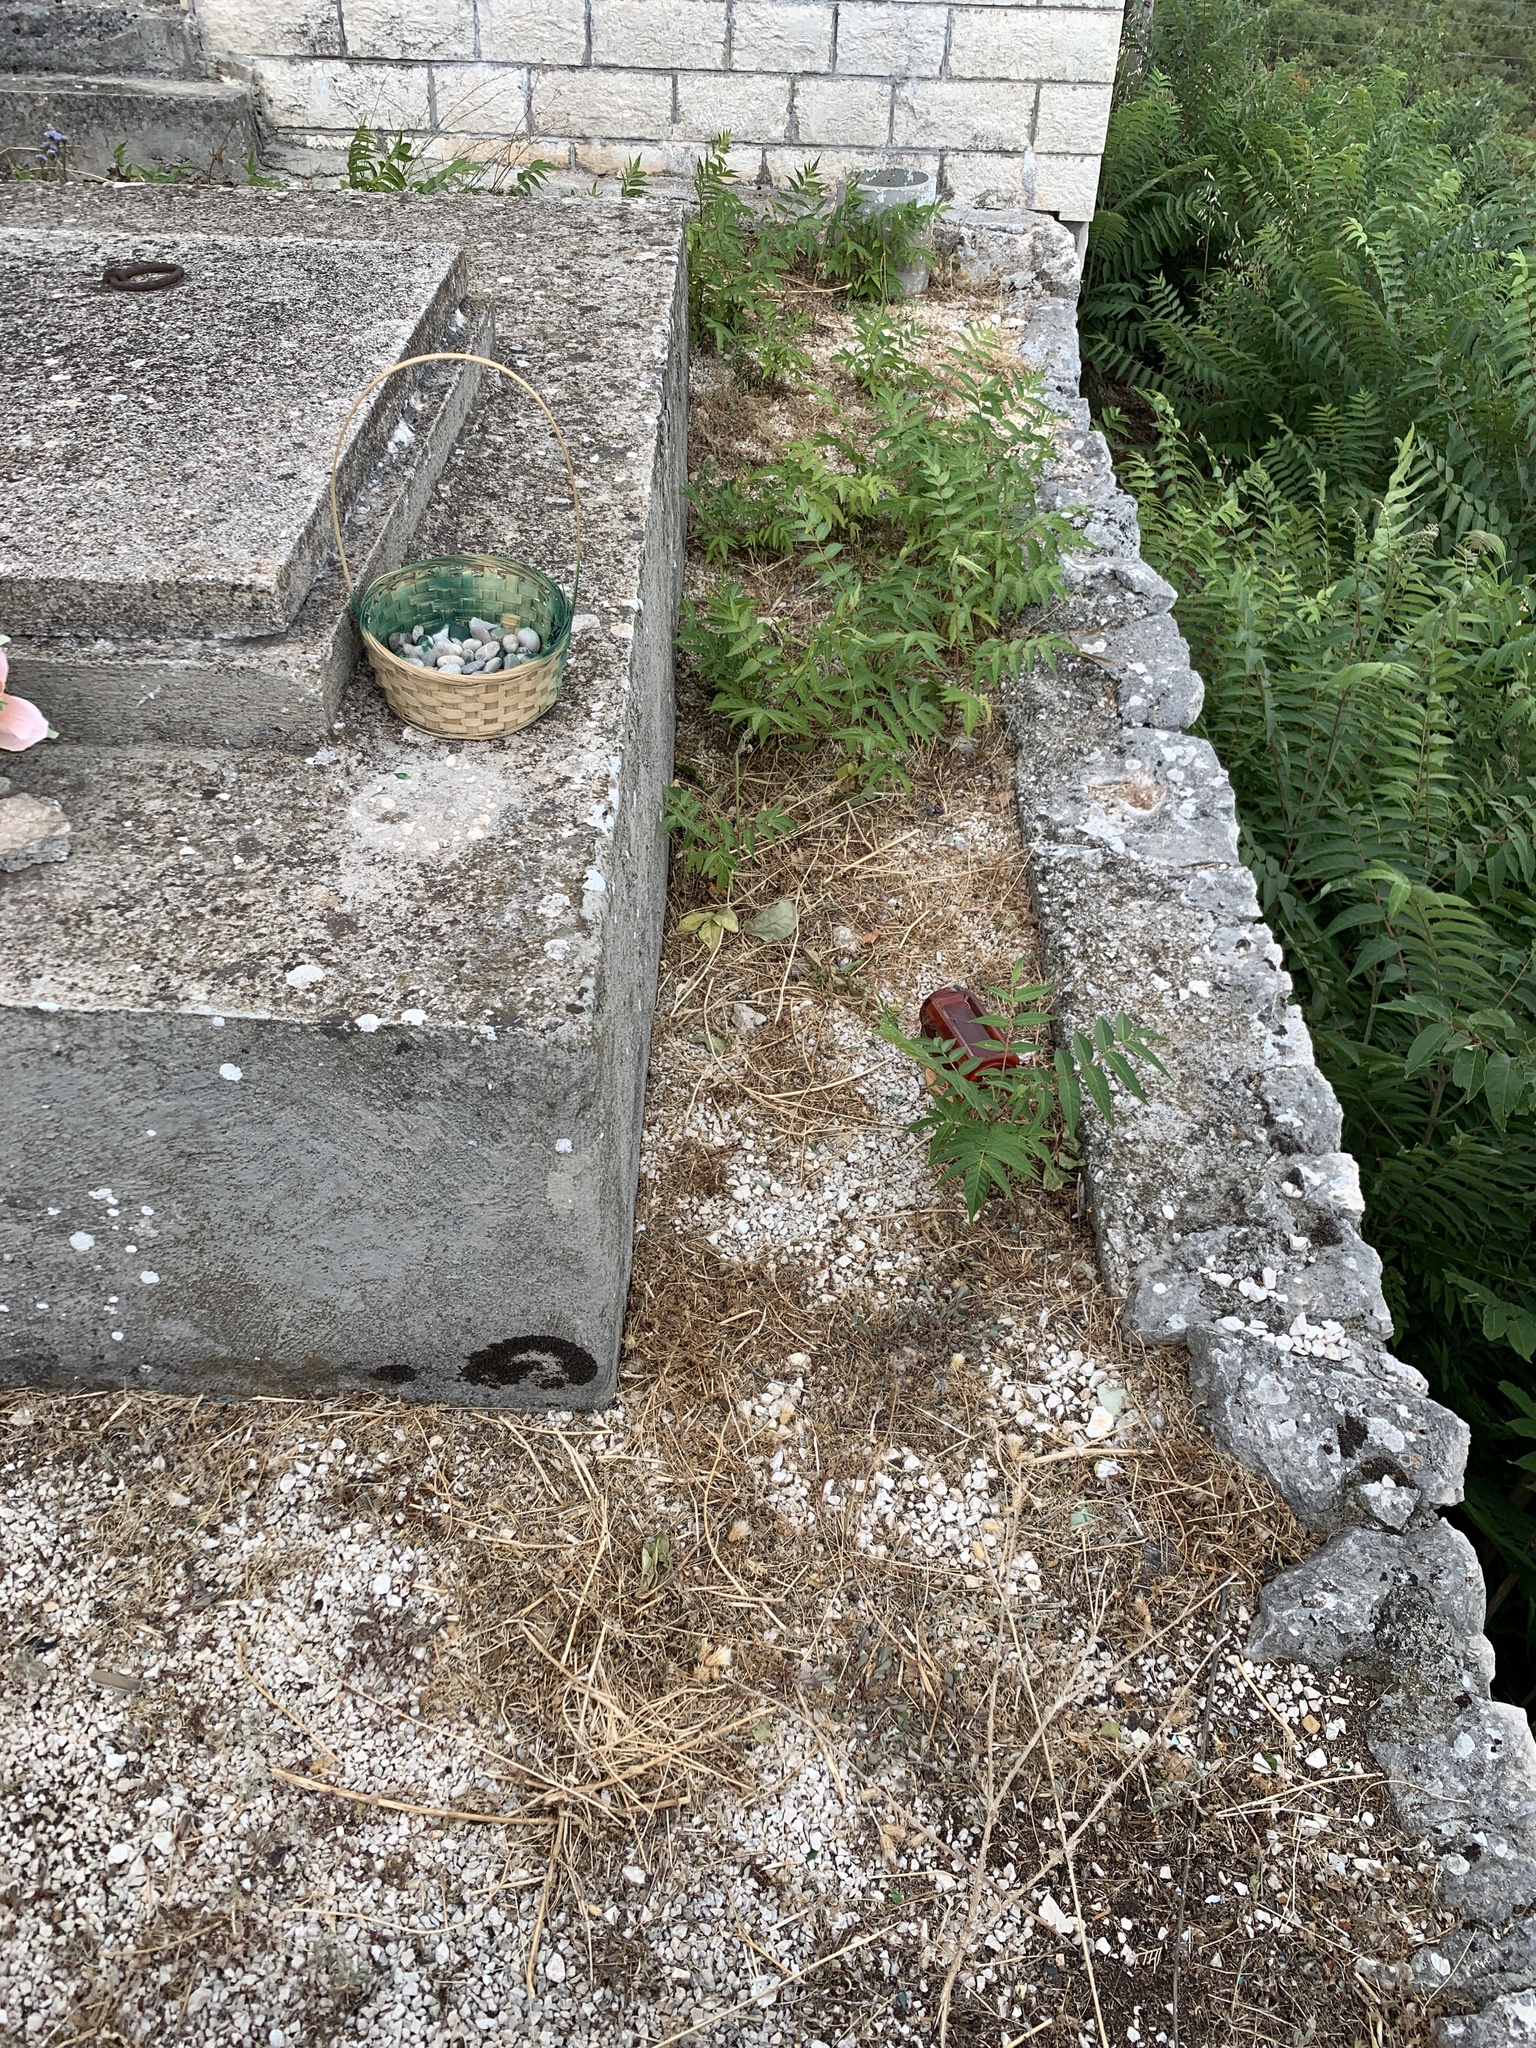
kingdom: Plantae
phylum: Tracheophyta
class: Magnoliopsida
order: Sapindales
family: Simaroubaceae
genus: Ailanthus
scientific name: Ailanthus altissima
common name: Tree-of-heaven
